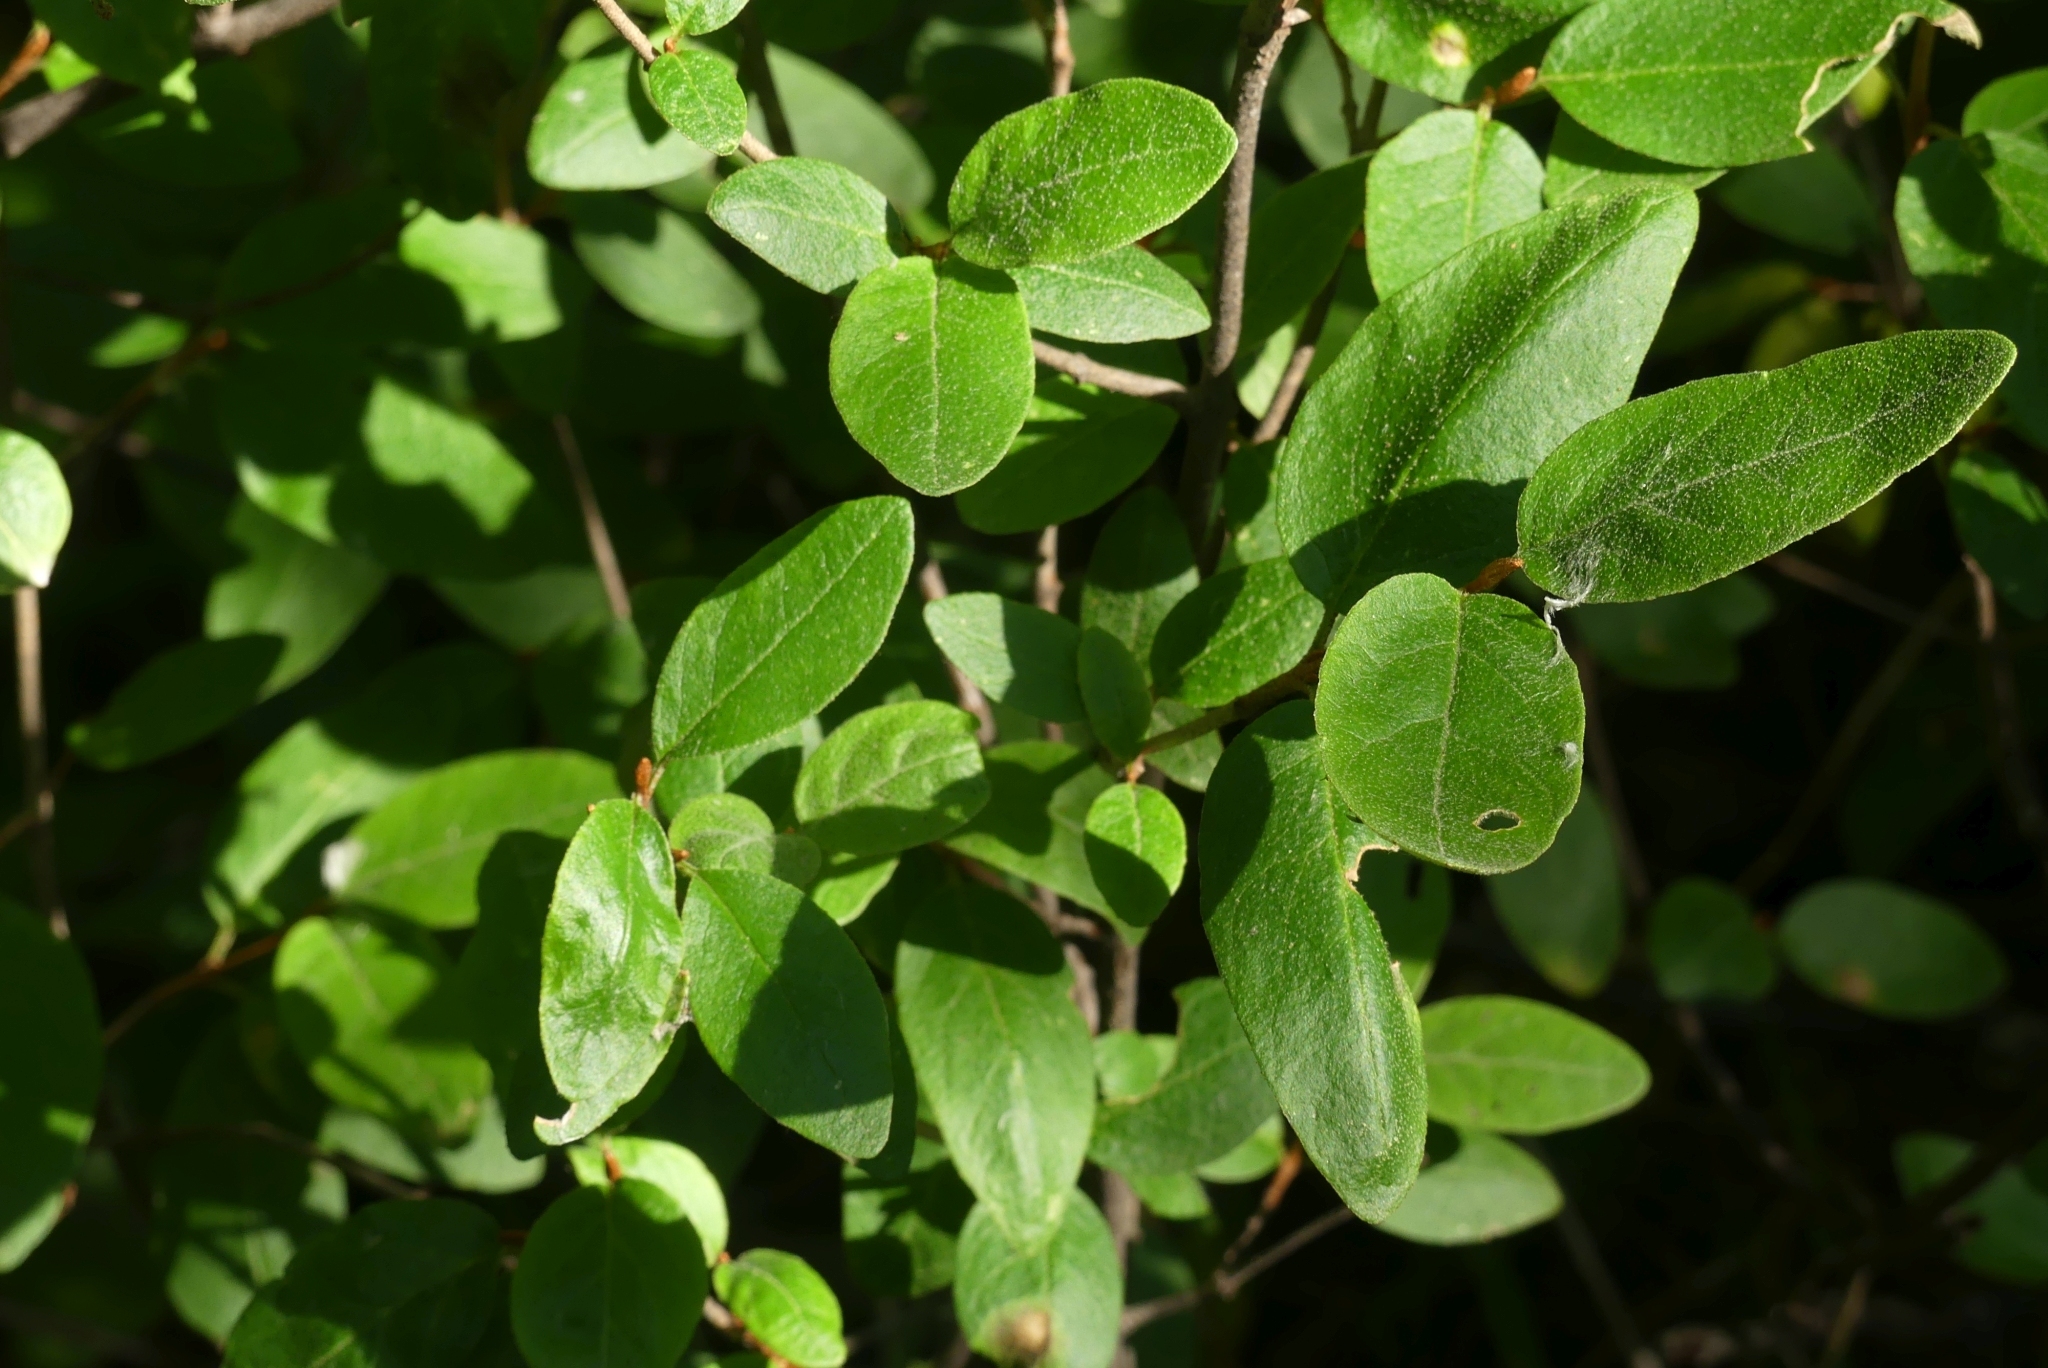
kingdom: Plantae
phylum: Tracheophyta
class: Magnoliopsida
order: Rosales
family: Elaeagnaceae
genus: Shepherdia
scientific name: Shepherdia canadensis
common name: Soapberry
